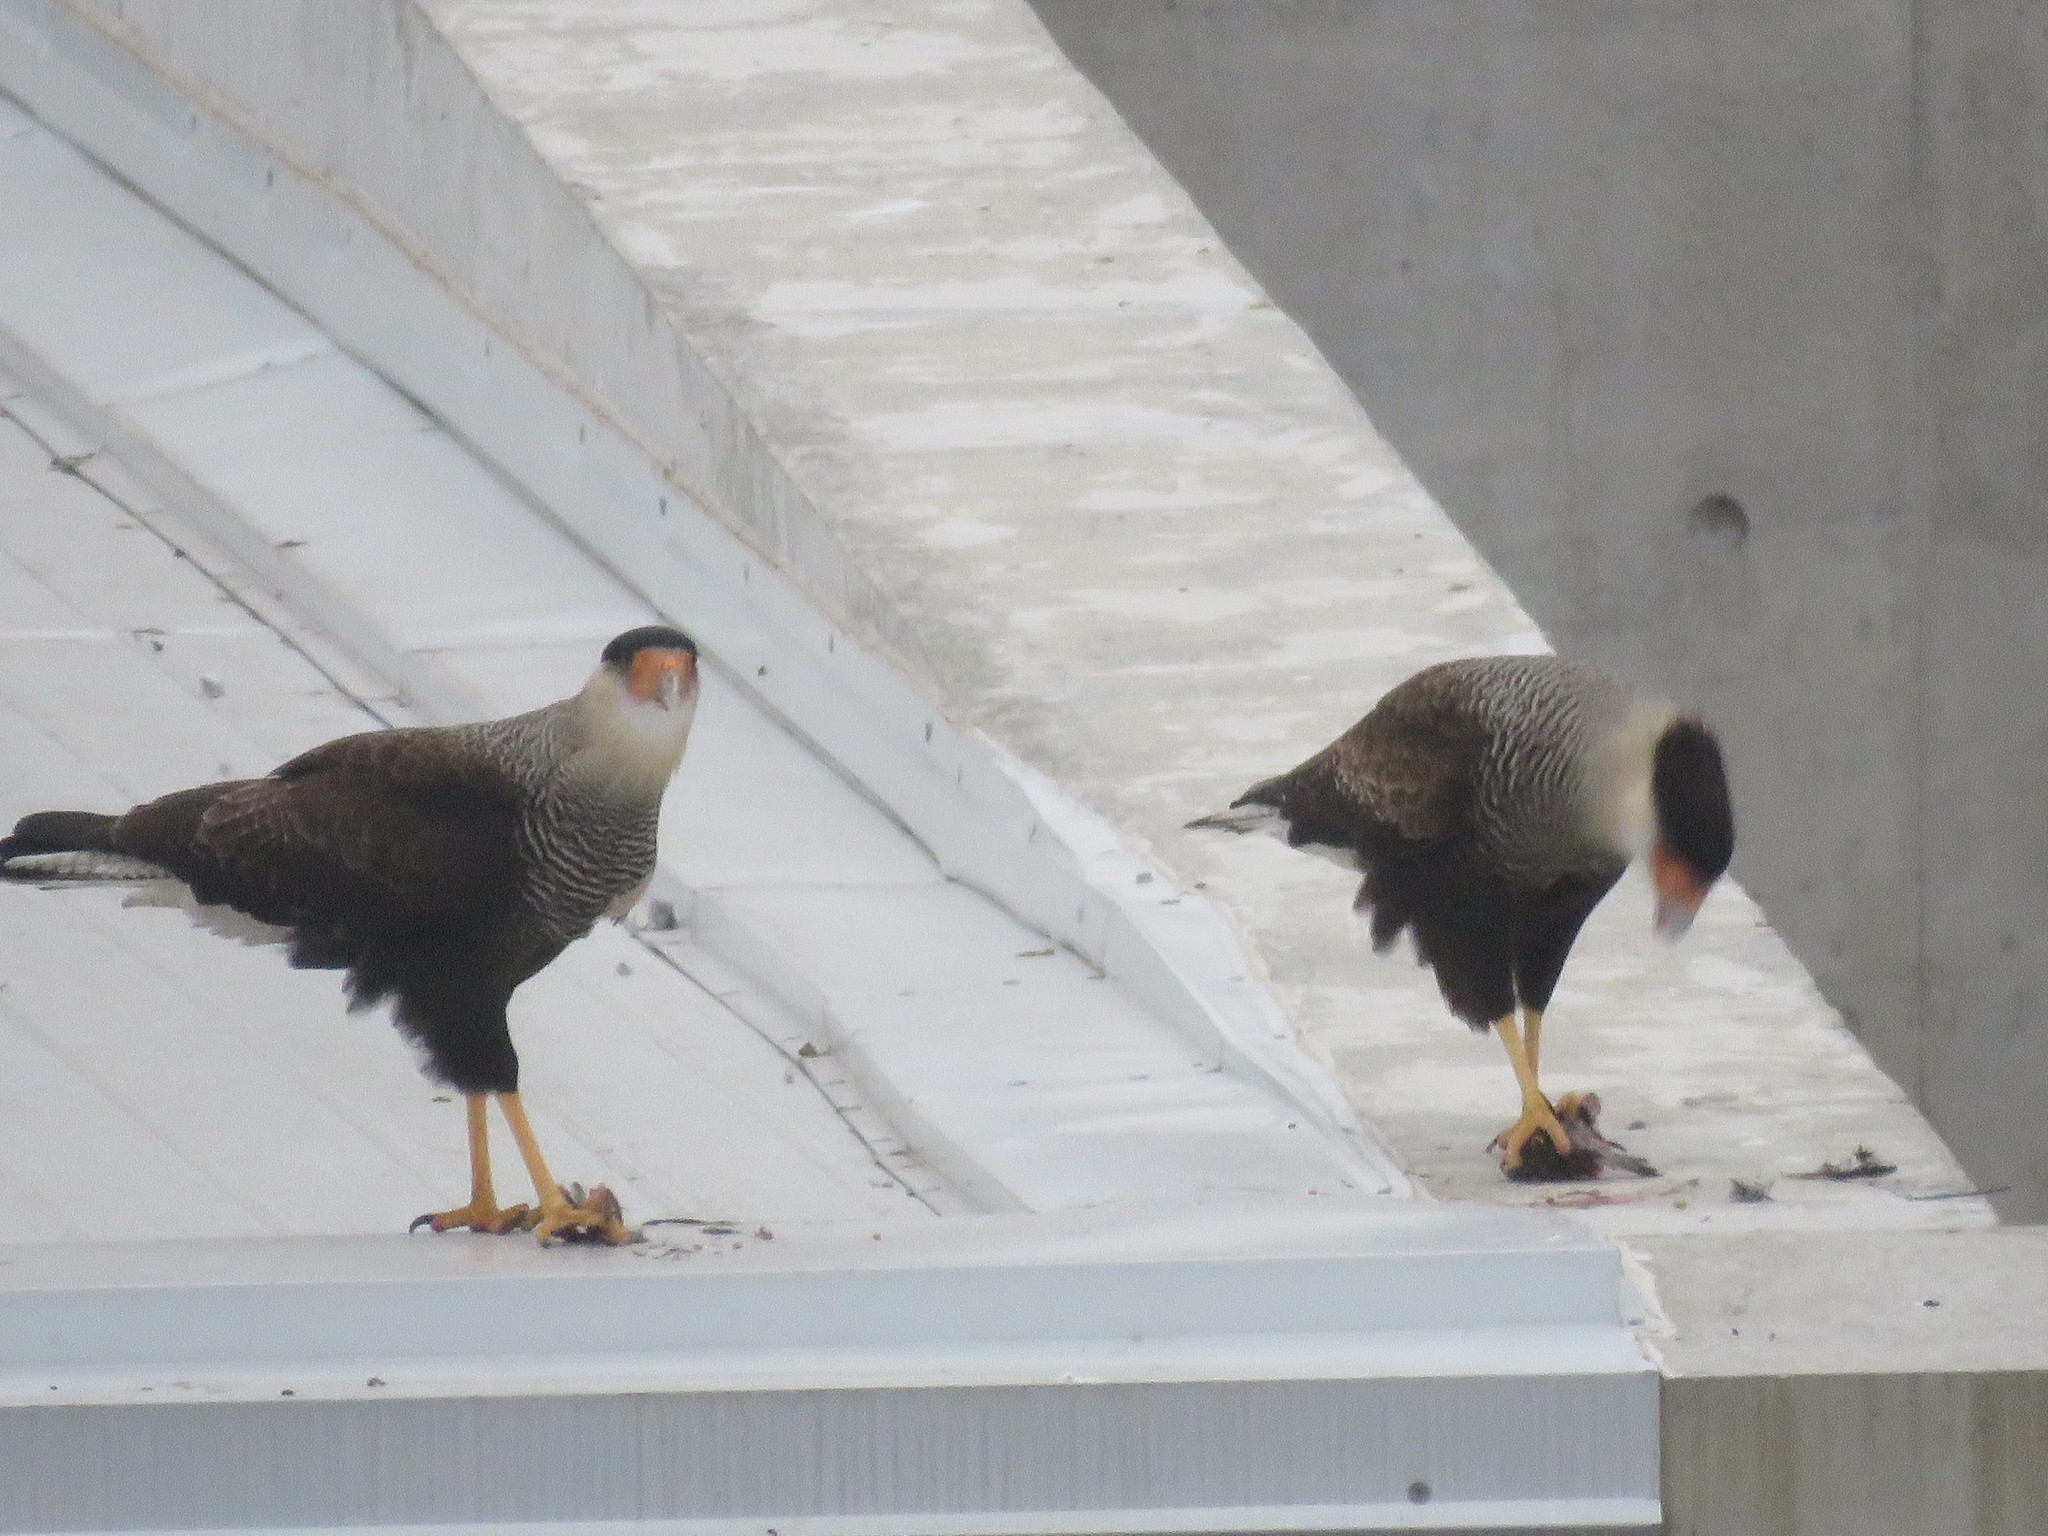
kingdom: Animalia
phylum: Chordata
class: Aves
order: Falconiformes
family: Falconidae
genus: Caracara
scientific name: Caracara plancus
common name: Southern caracara
